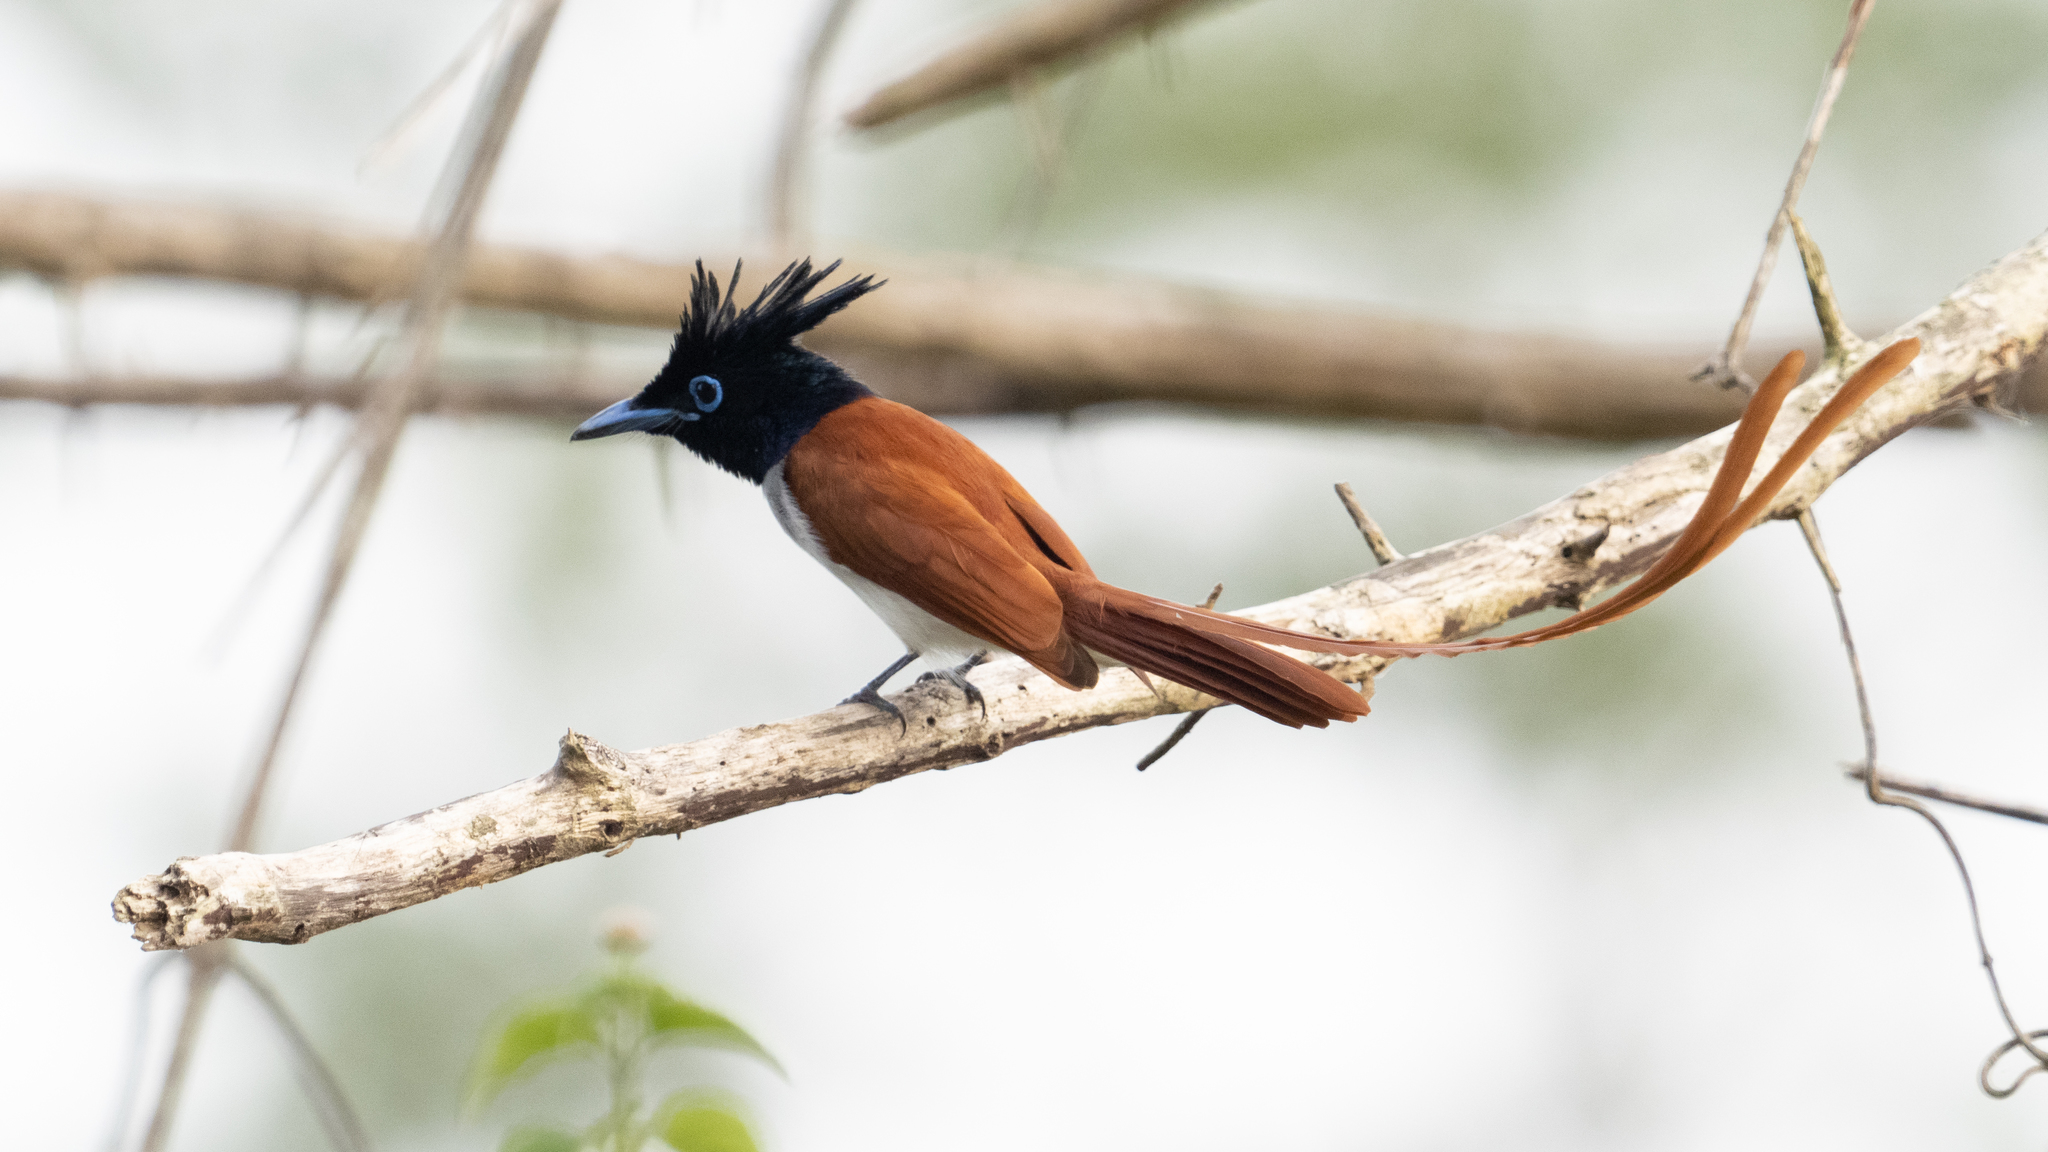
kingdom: Animalia
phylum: Chordata
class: Aves
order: Passeriformes
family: Monarchidae
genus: Terpsiphone
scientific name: Terpsiphone paradisi
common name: Indian paradise flycatcher
